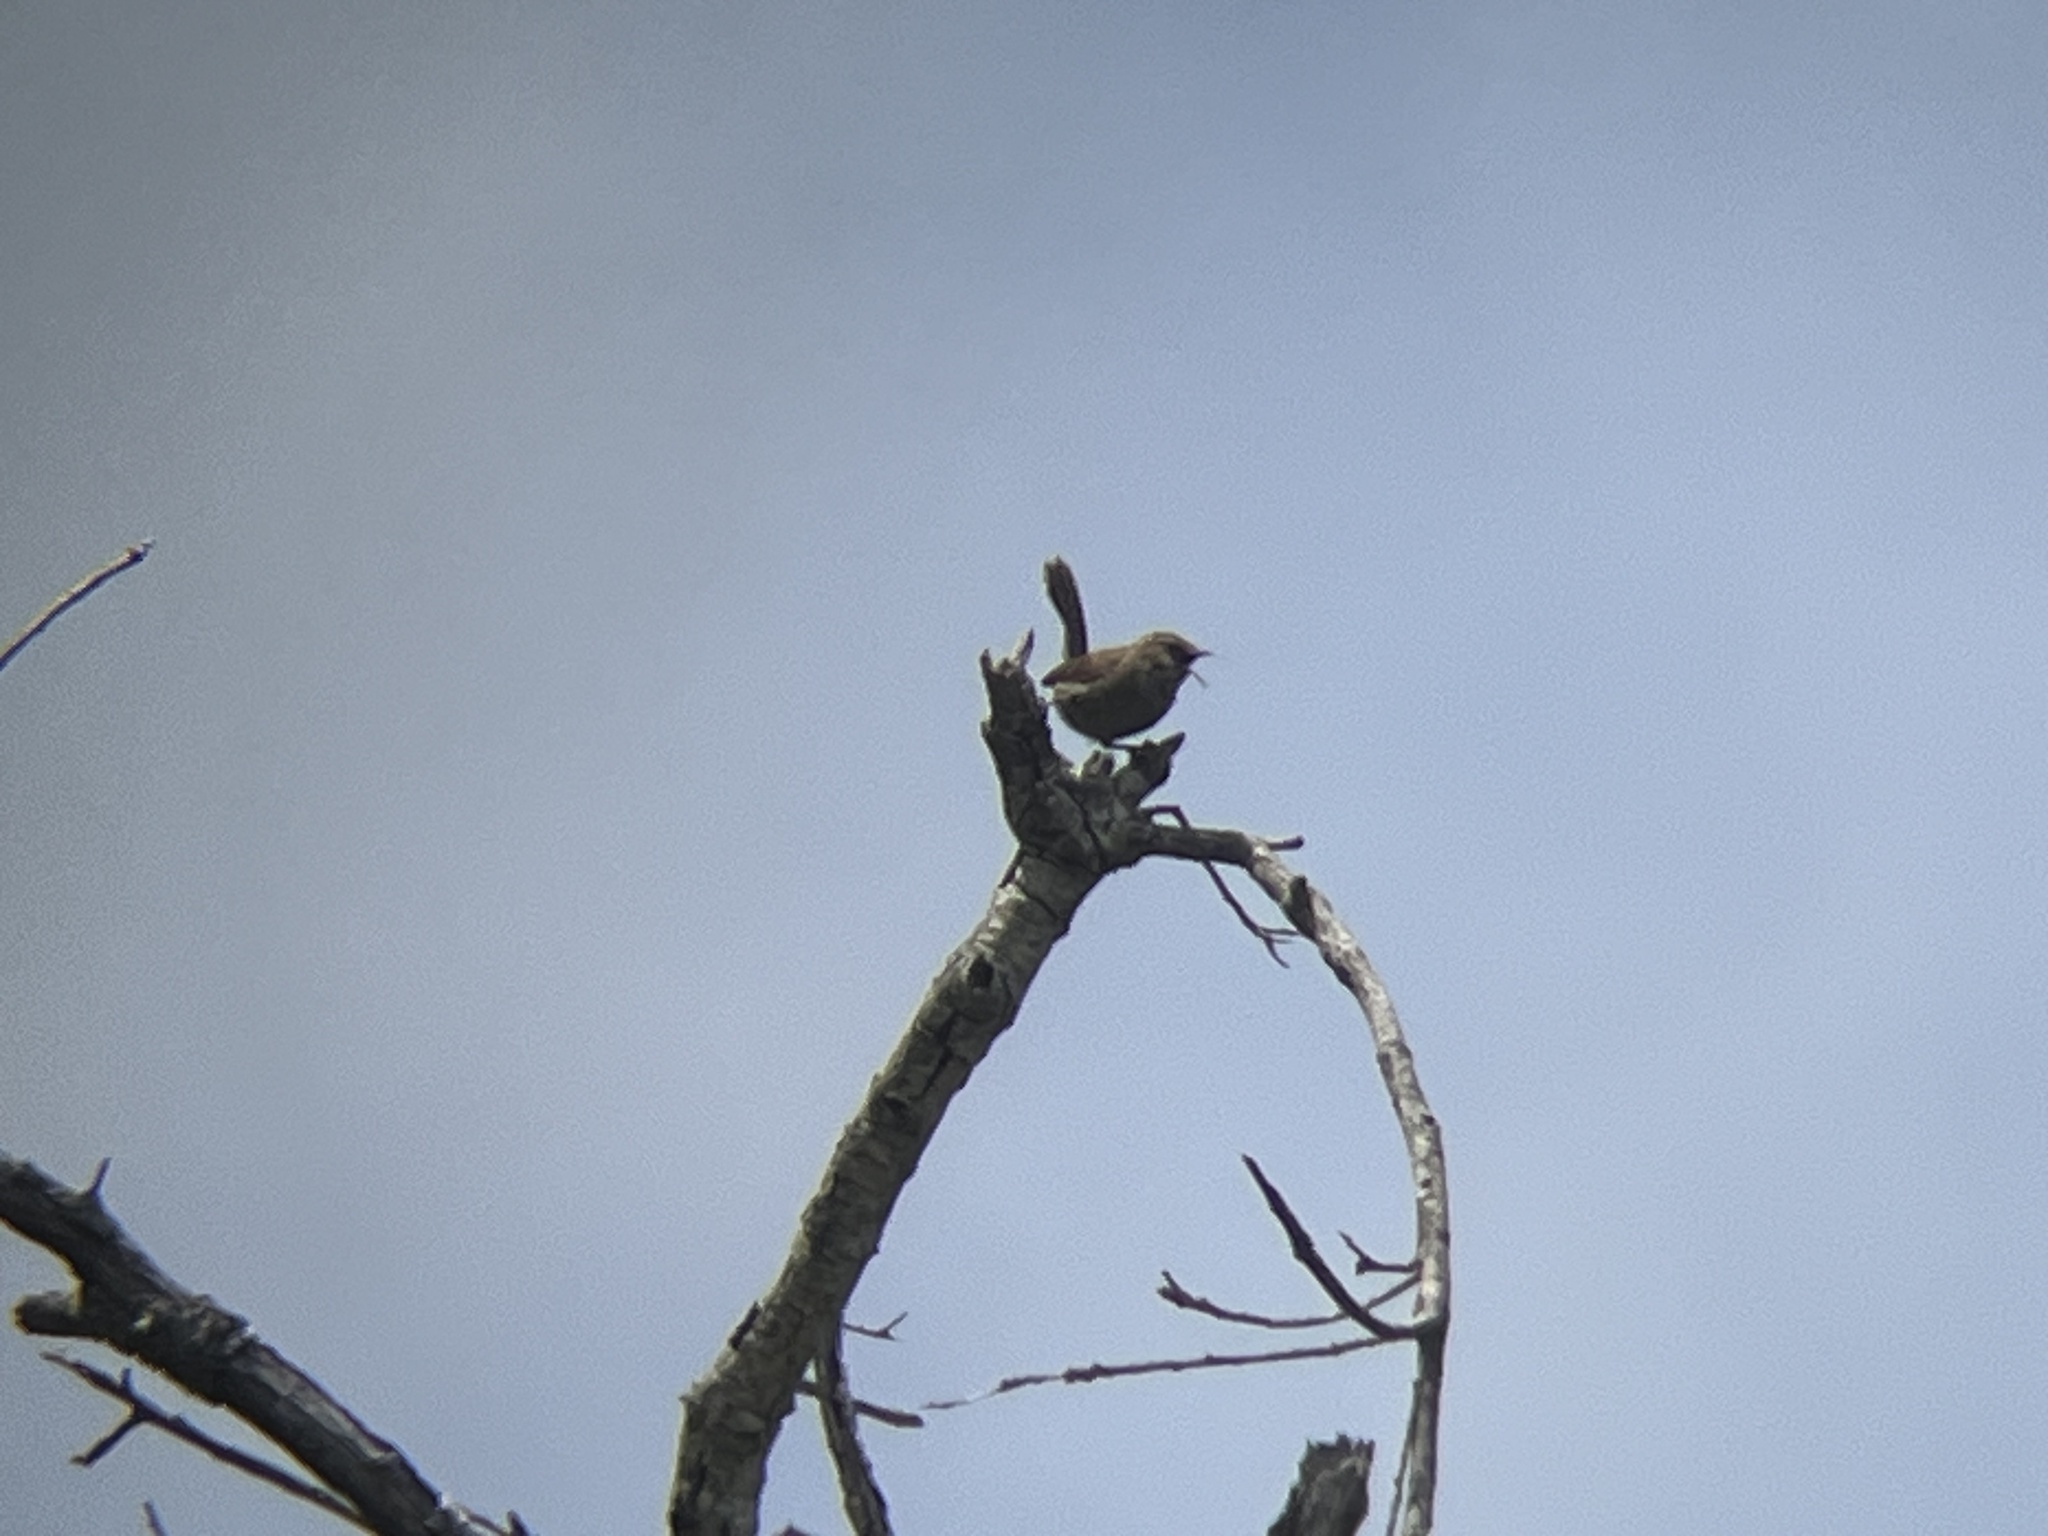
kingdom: Animalia
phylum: Chordata
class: Aves
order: Passeriformes
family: Troglodytidae
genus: Thryomanes
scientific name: Thryomanes bewickii
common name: Bewick's wren
